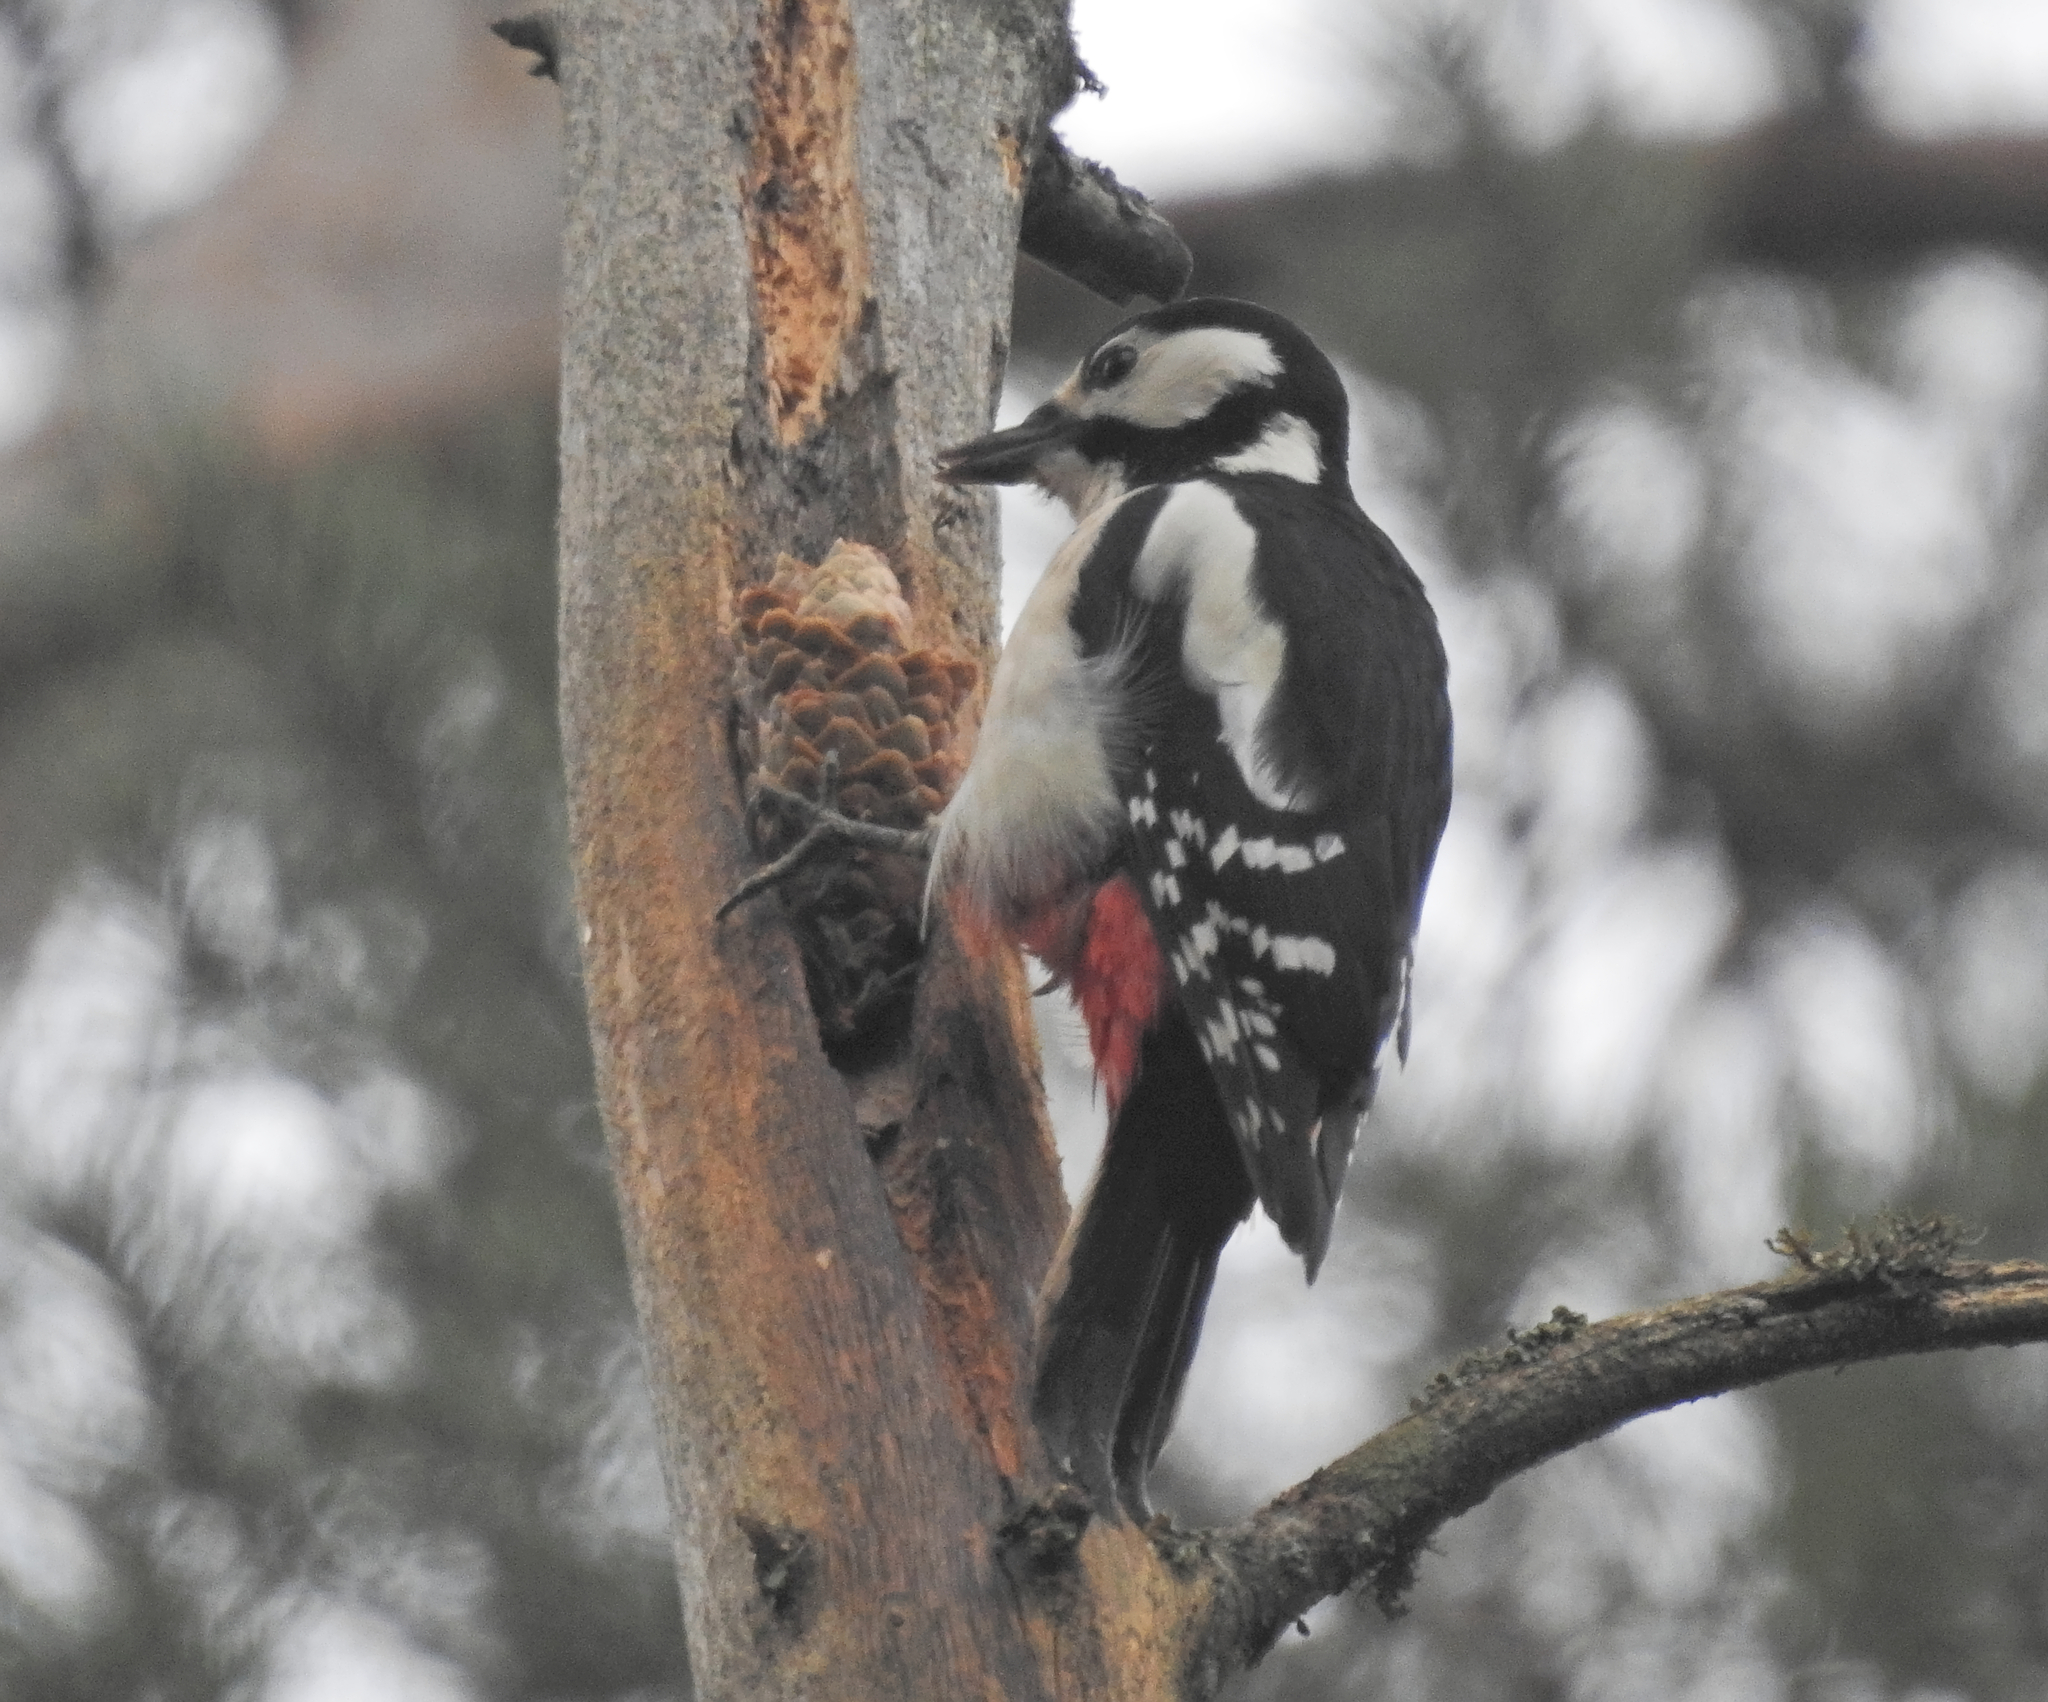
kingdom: Animalia
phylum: Chordata
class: Aves
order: Piciformes
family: Picidae
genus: Dendrocopos
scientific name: Dendrocopos major
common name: Great spotted woodpecker
